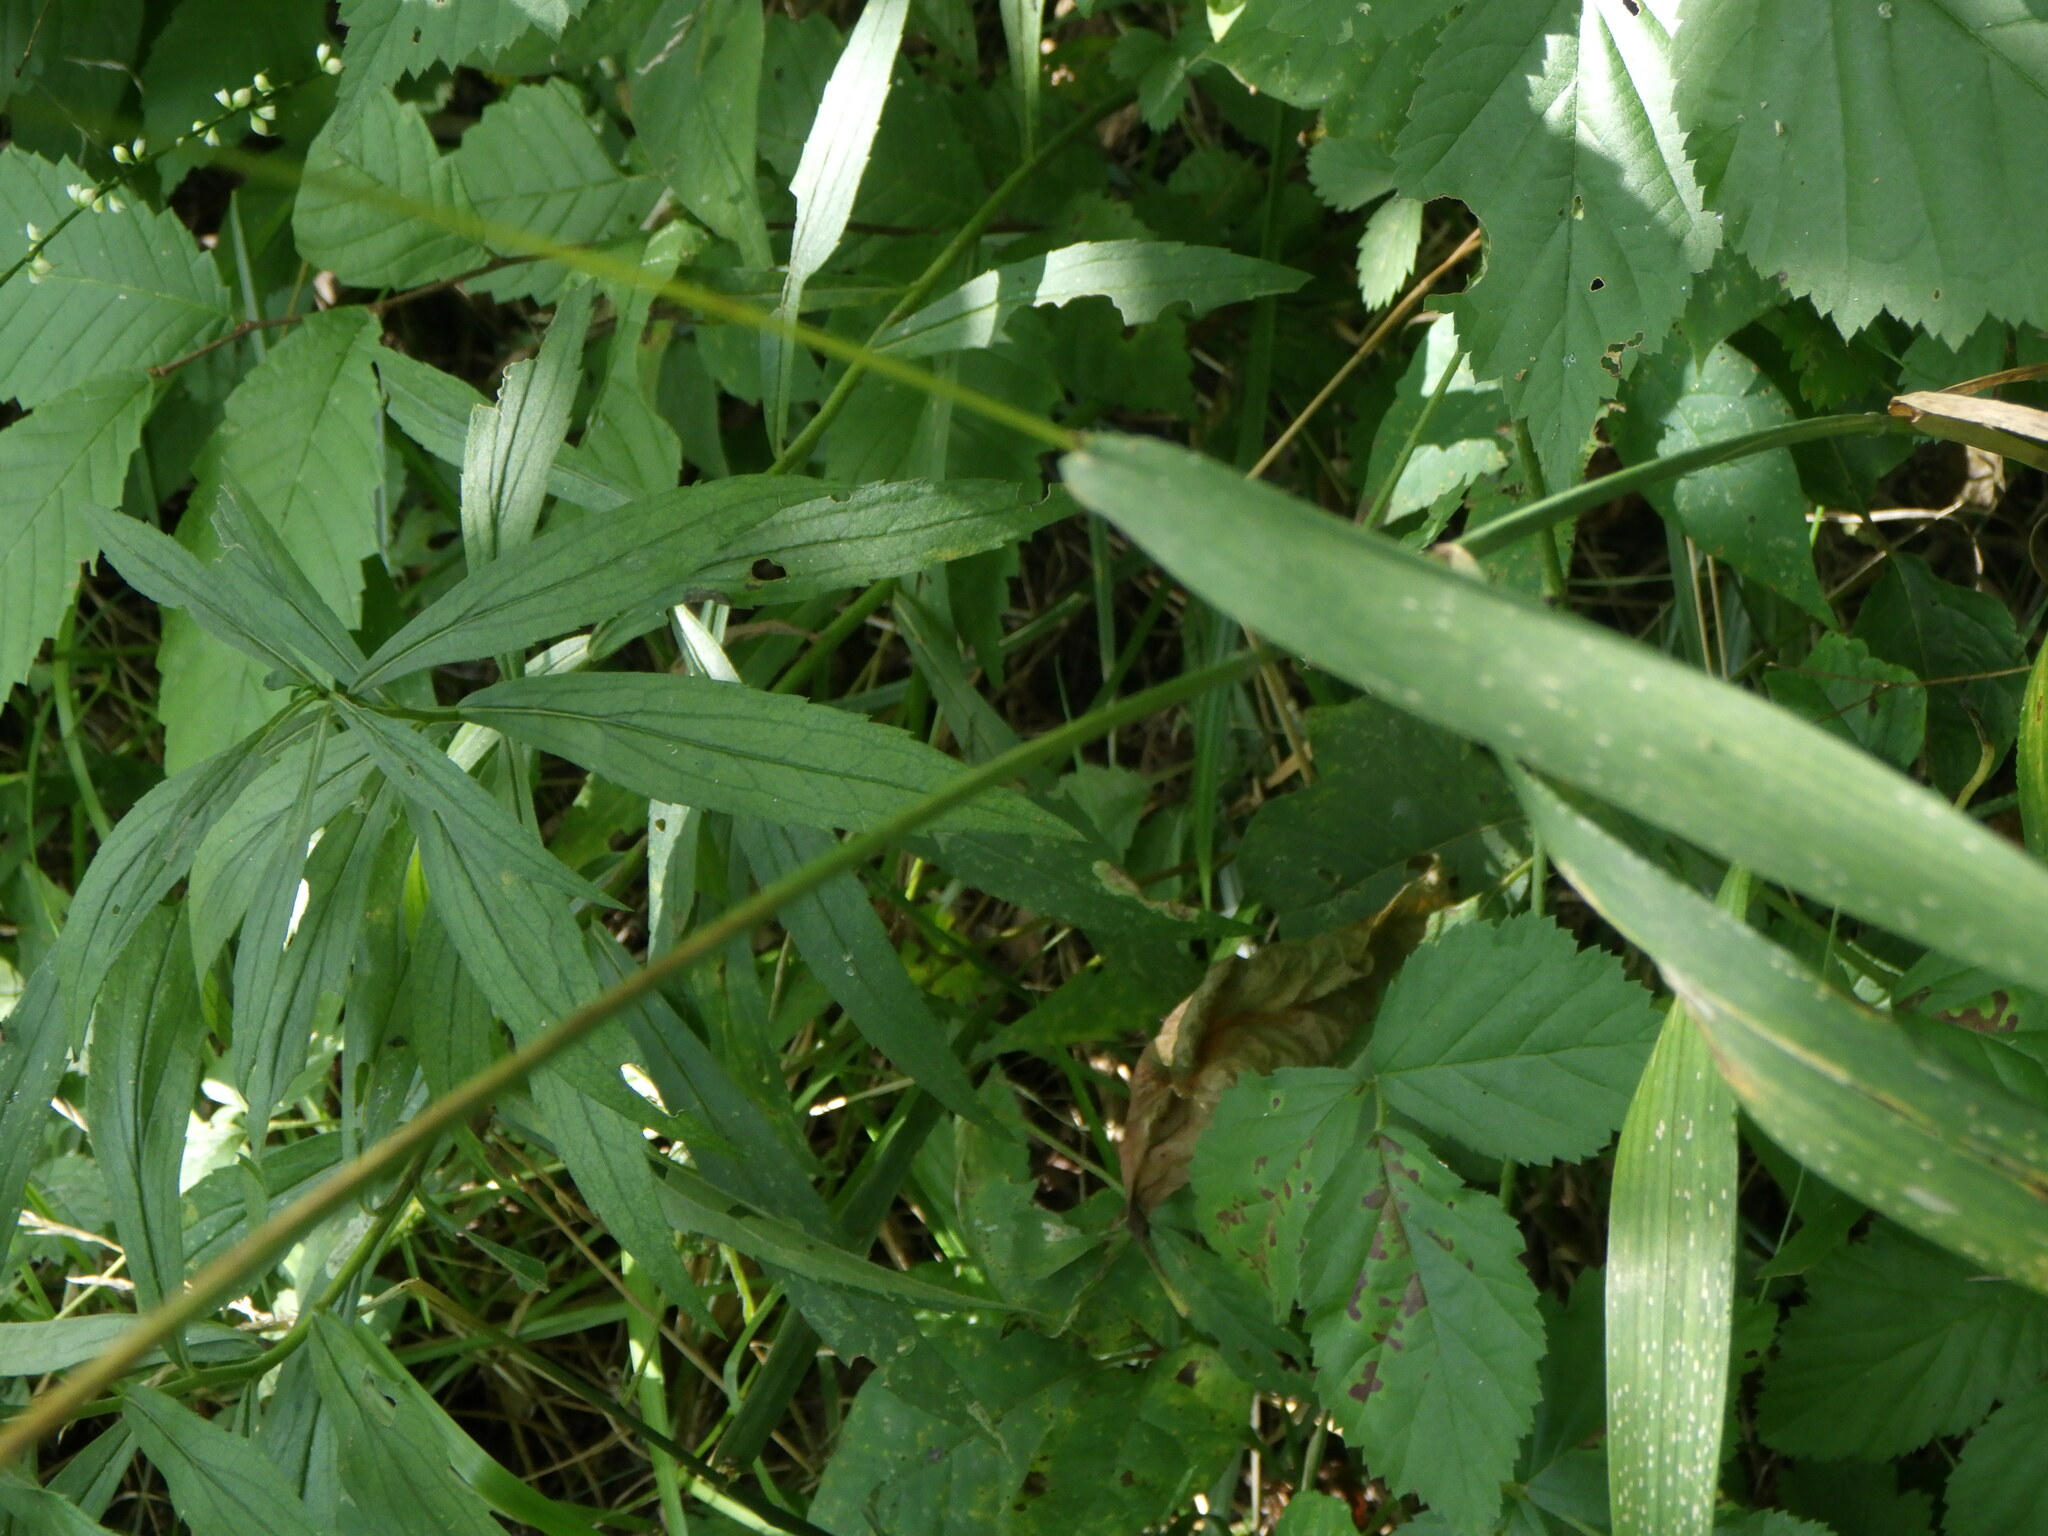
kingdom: Plantae
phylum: Tracheophyta
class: Liliopsida
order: Poales
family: Poaceae
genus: Elymus
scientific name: Elymus hystrix
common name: Bottlebrush grass
